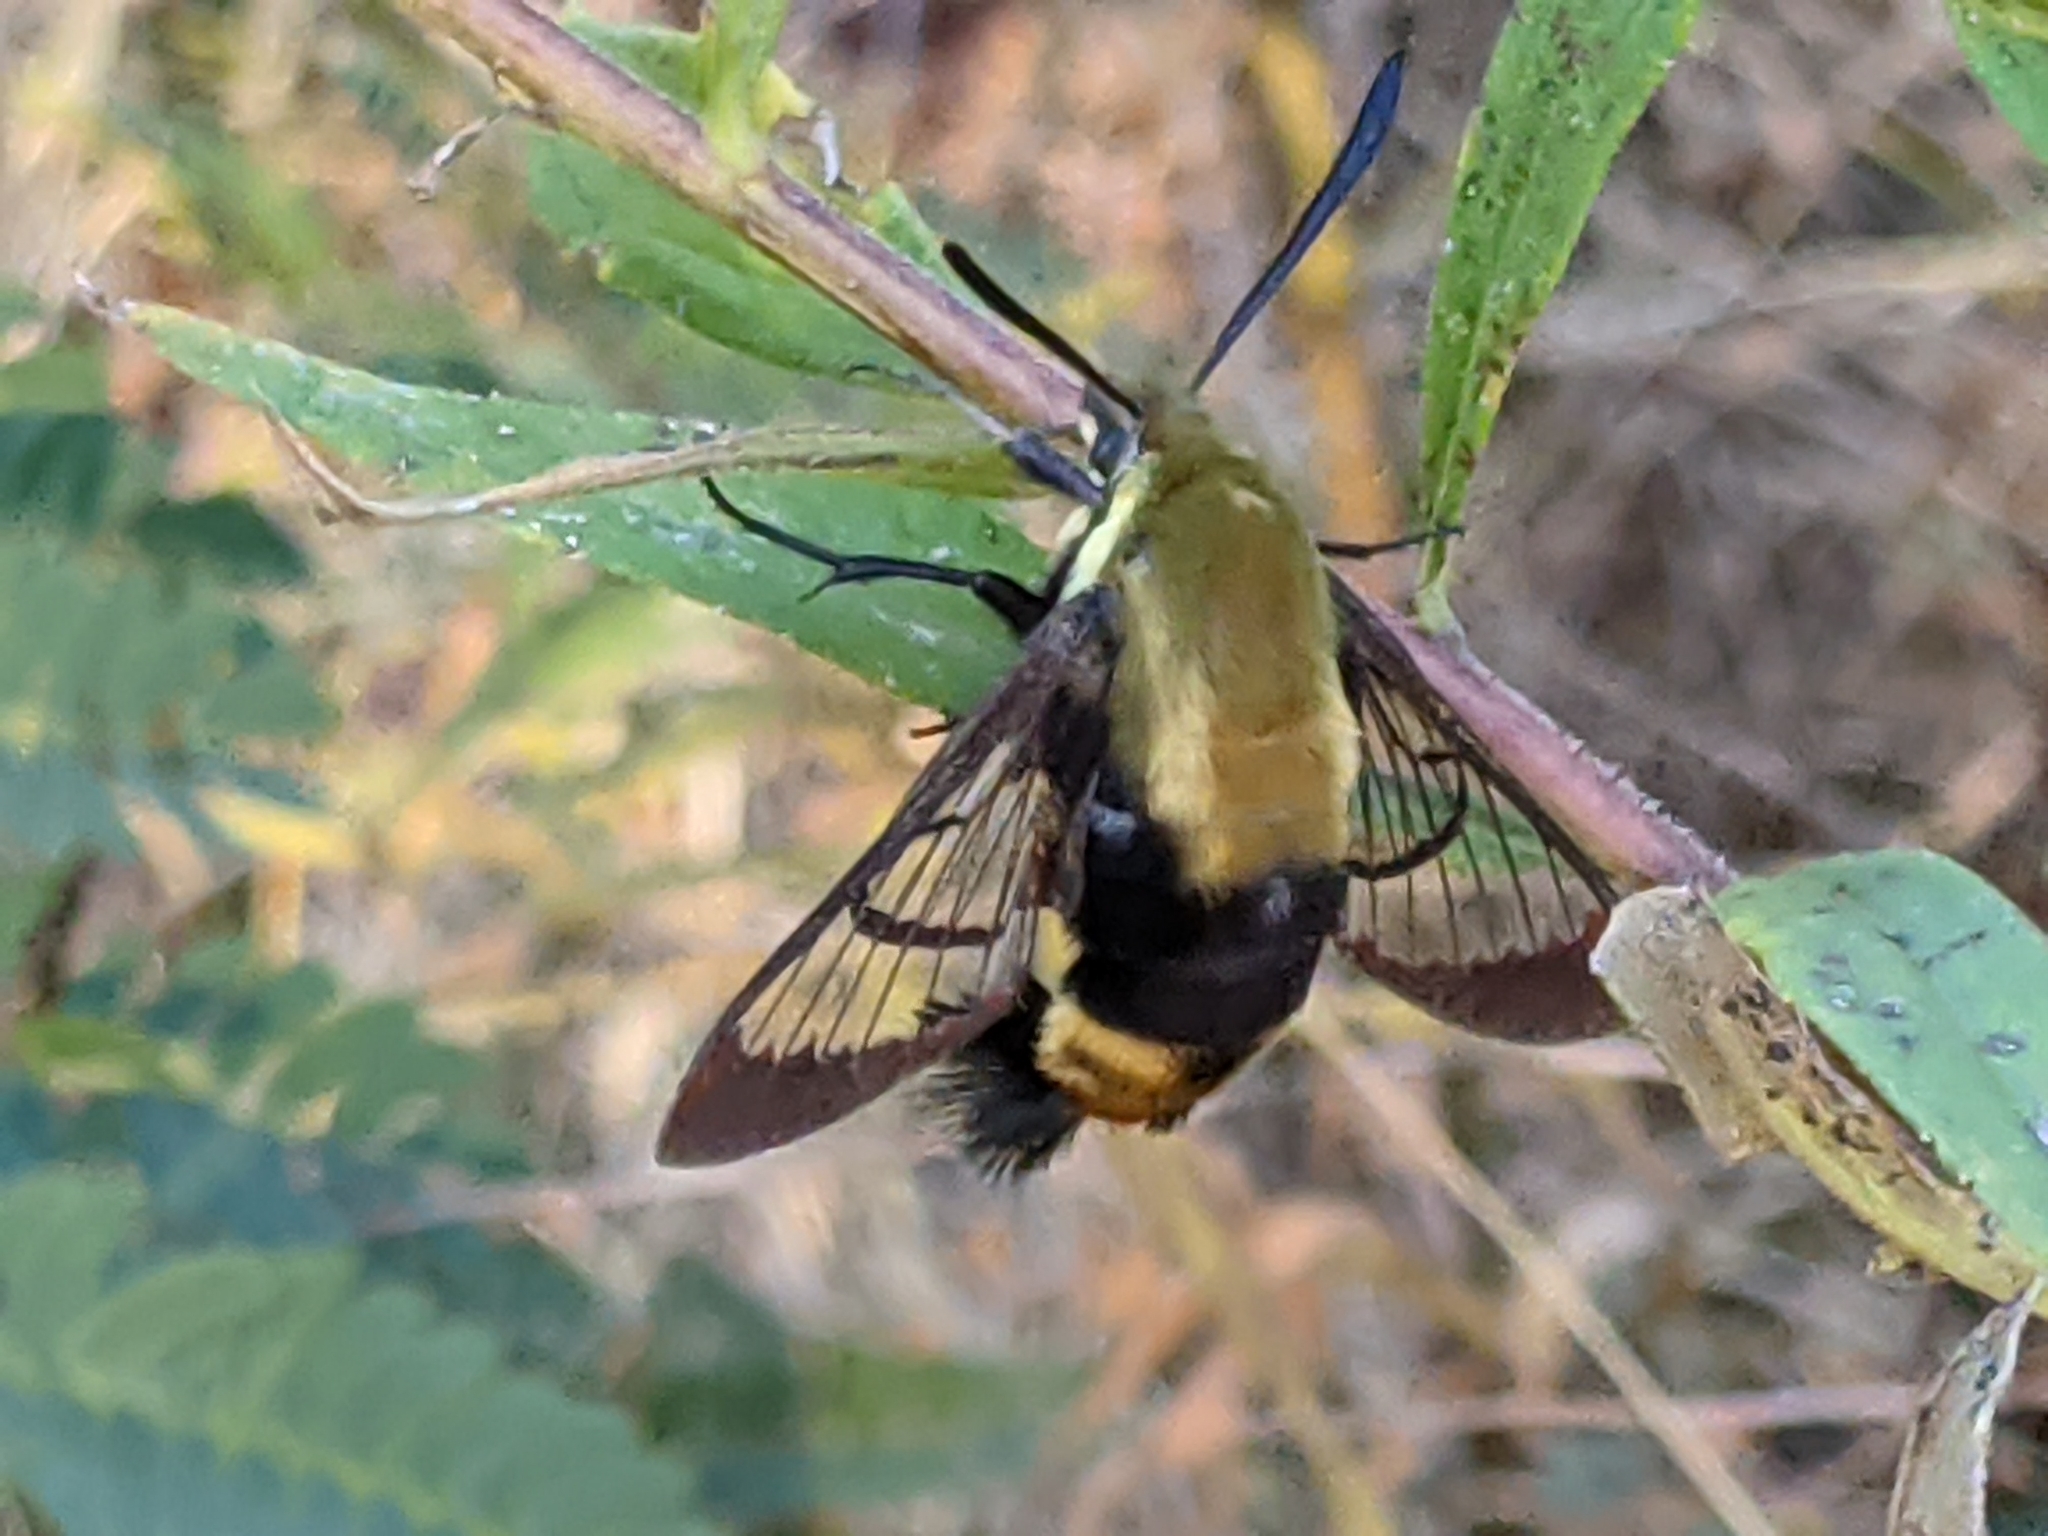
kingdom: Animalia
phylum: Arthropoda
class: Insecta
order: Lepidoptera
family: Sphingidae
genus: Hemaris
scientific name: Hemaris diffinis
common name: Bumblebee moth
